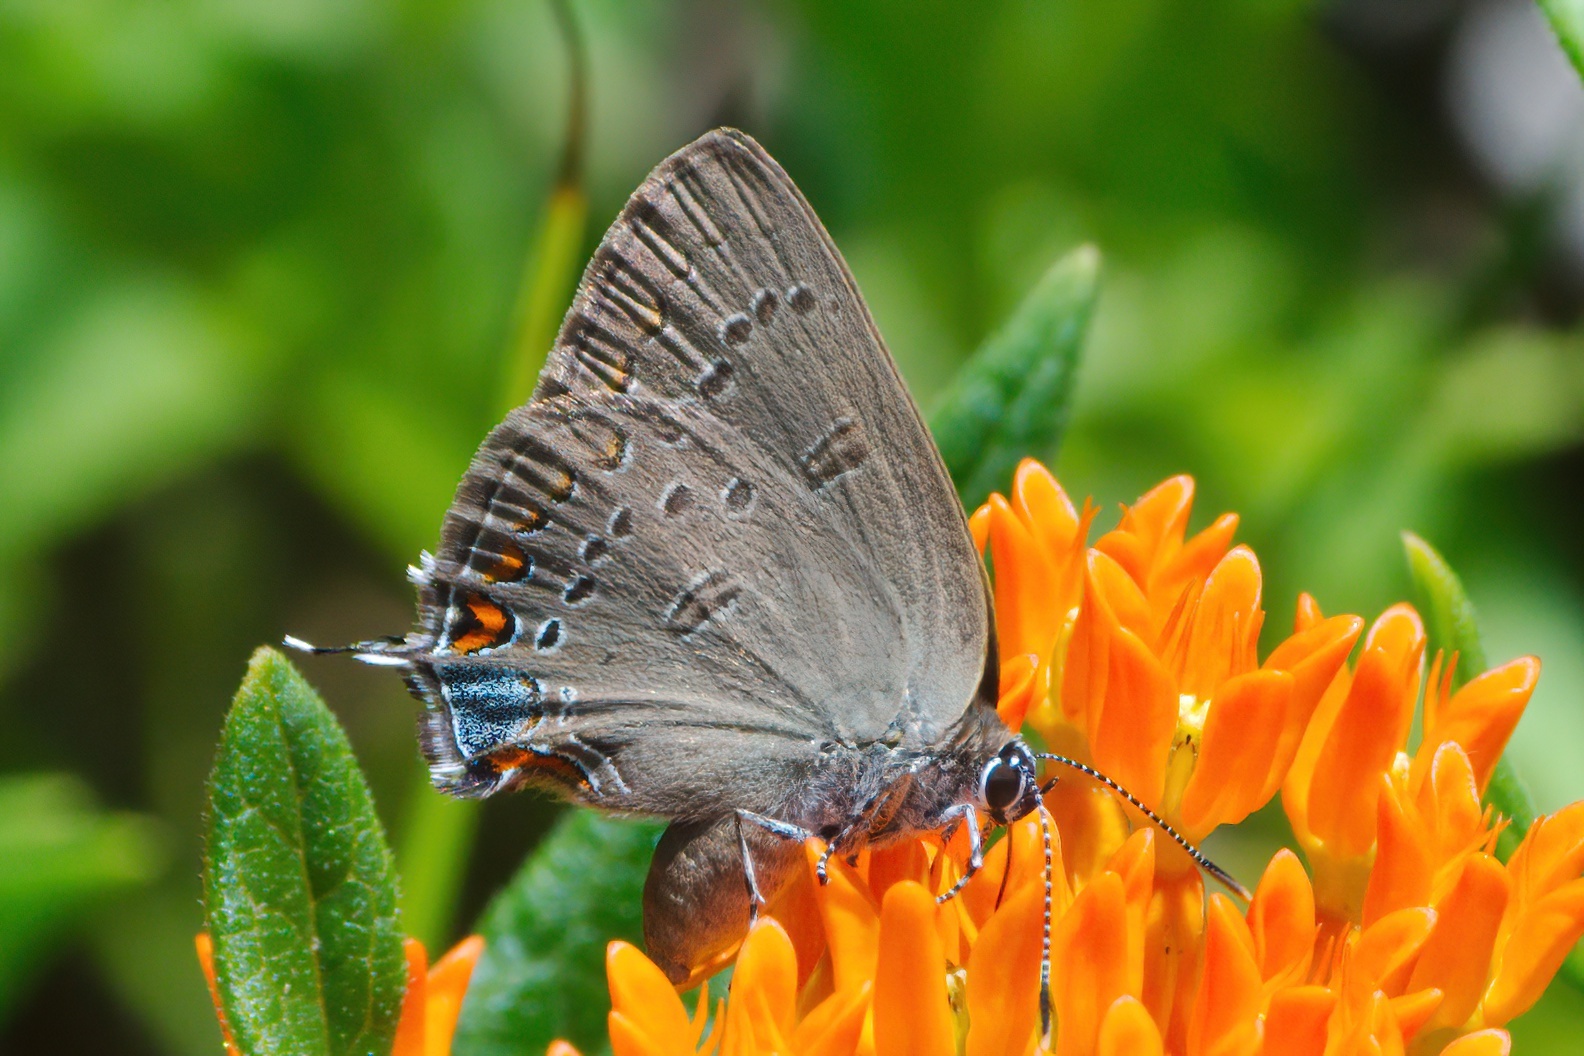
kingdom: Animalia
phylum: Arthropoda
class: Insecta
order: Lepidoptera
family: Lycaenidae
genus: Satyrium
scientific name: Satyrium edwardsii
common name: Edwards' hairstreak
